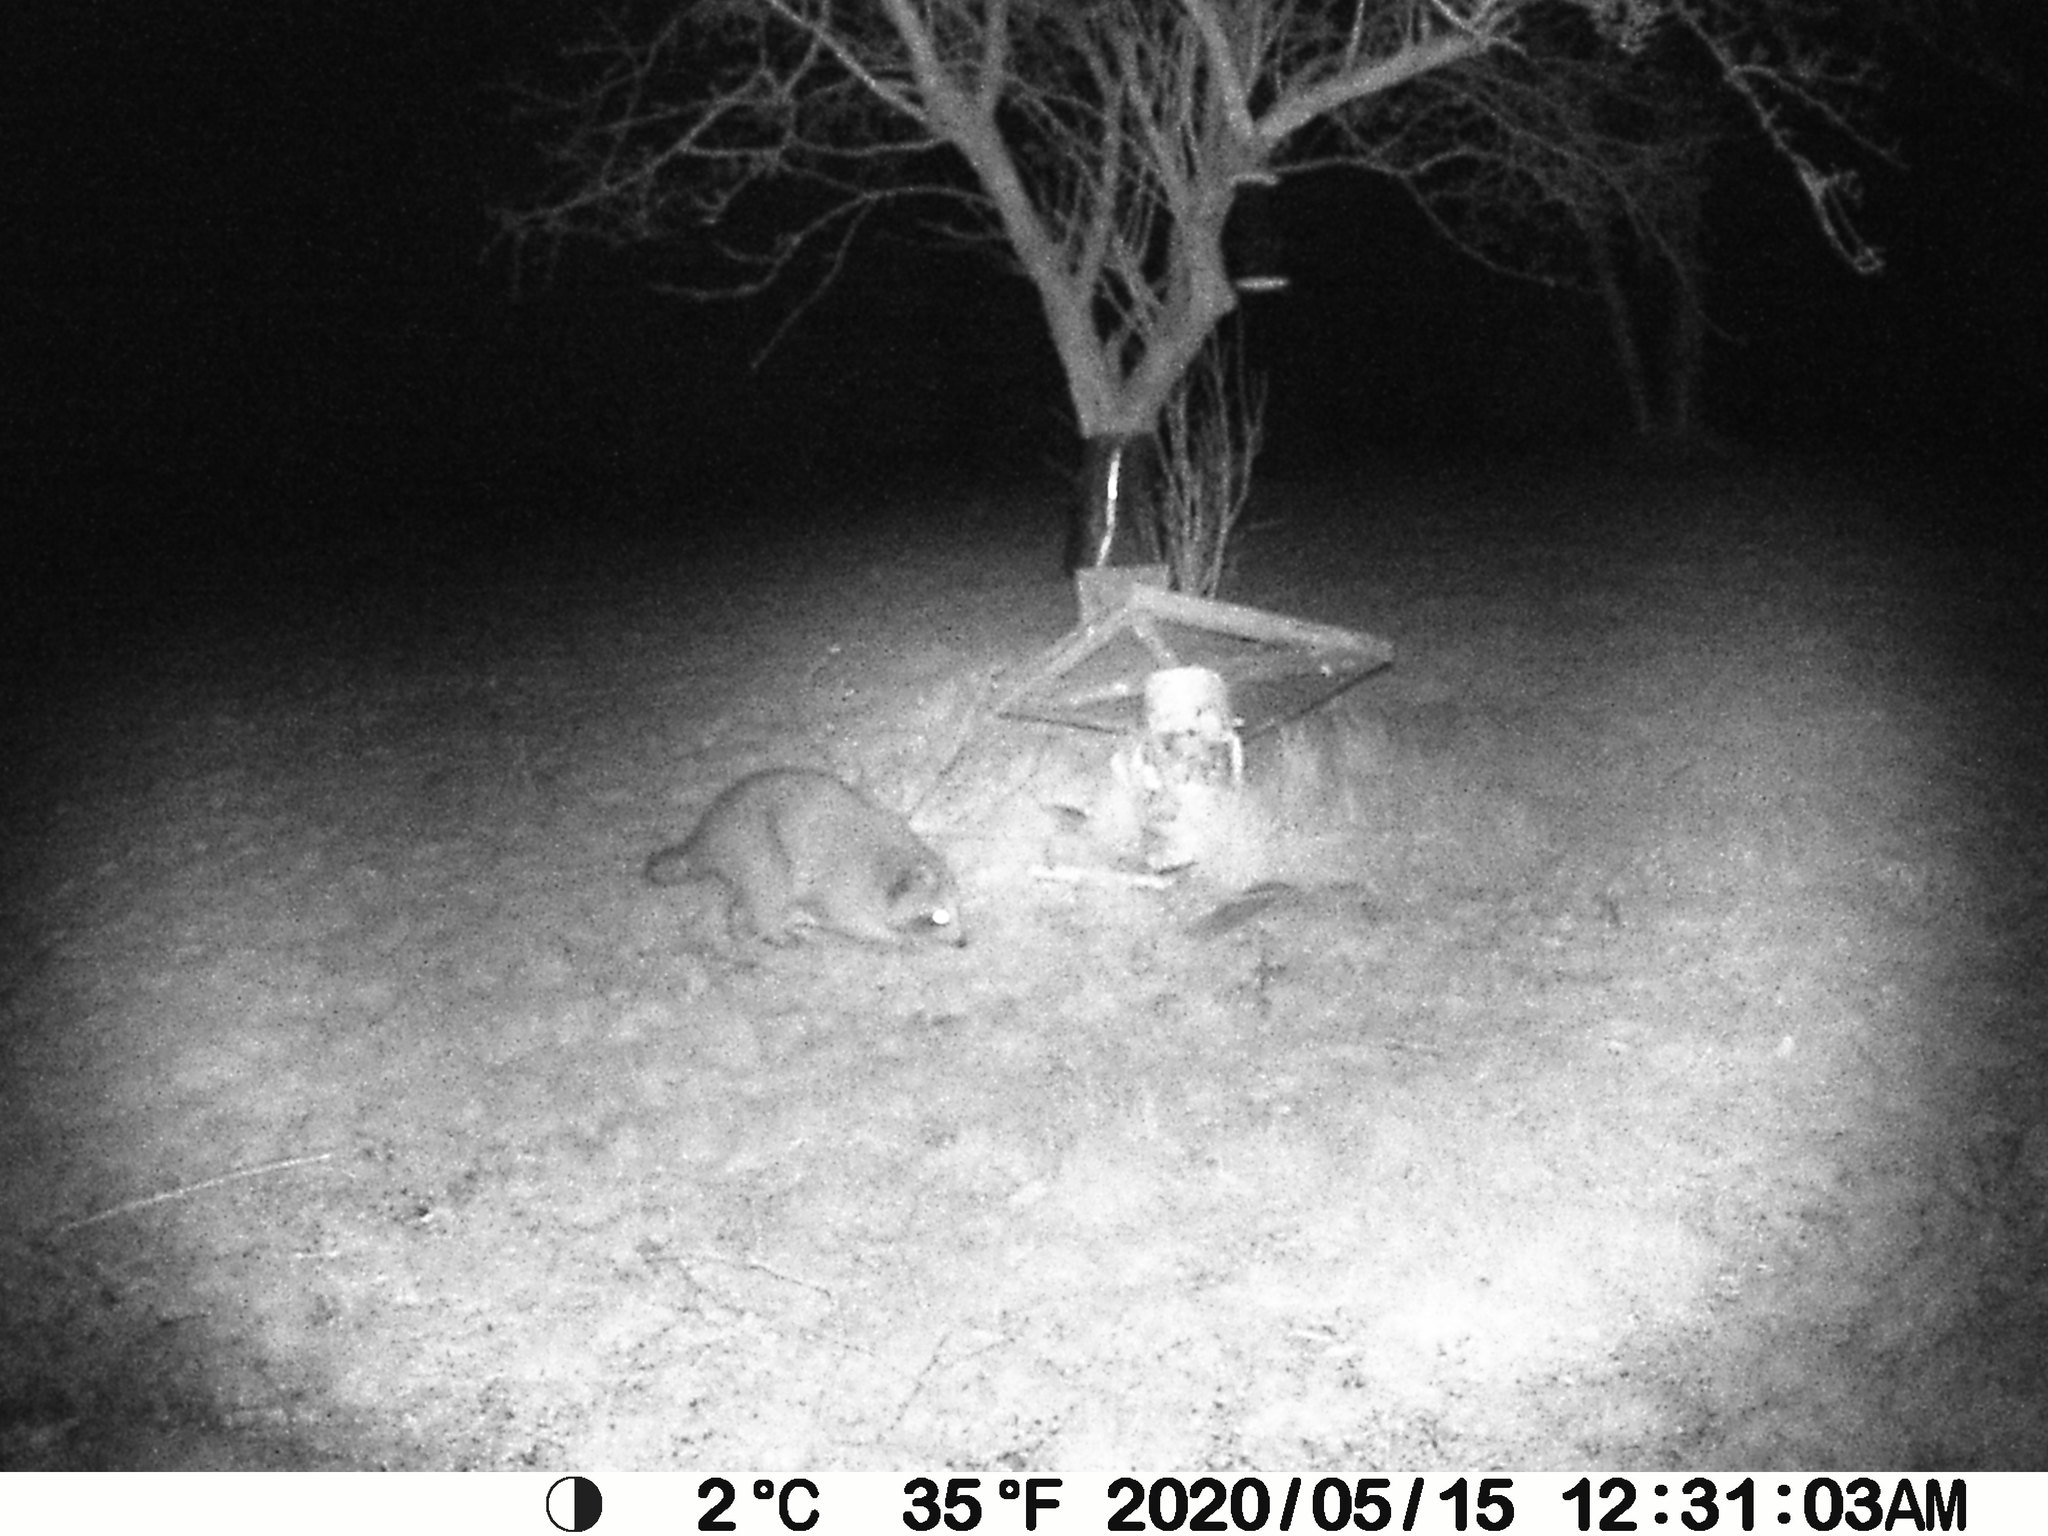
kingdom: Animalia
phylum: Chordata
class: Mammalia
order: Carnivora
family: Procyonidae
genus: Procyon
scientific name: Procyon lotor
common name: Raccoon
